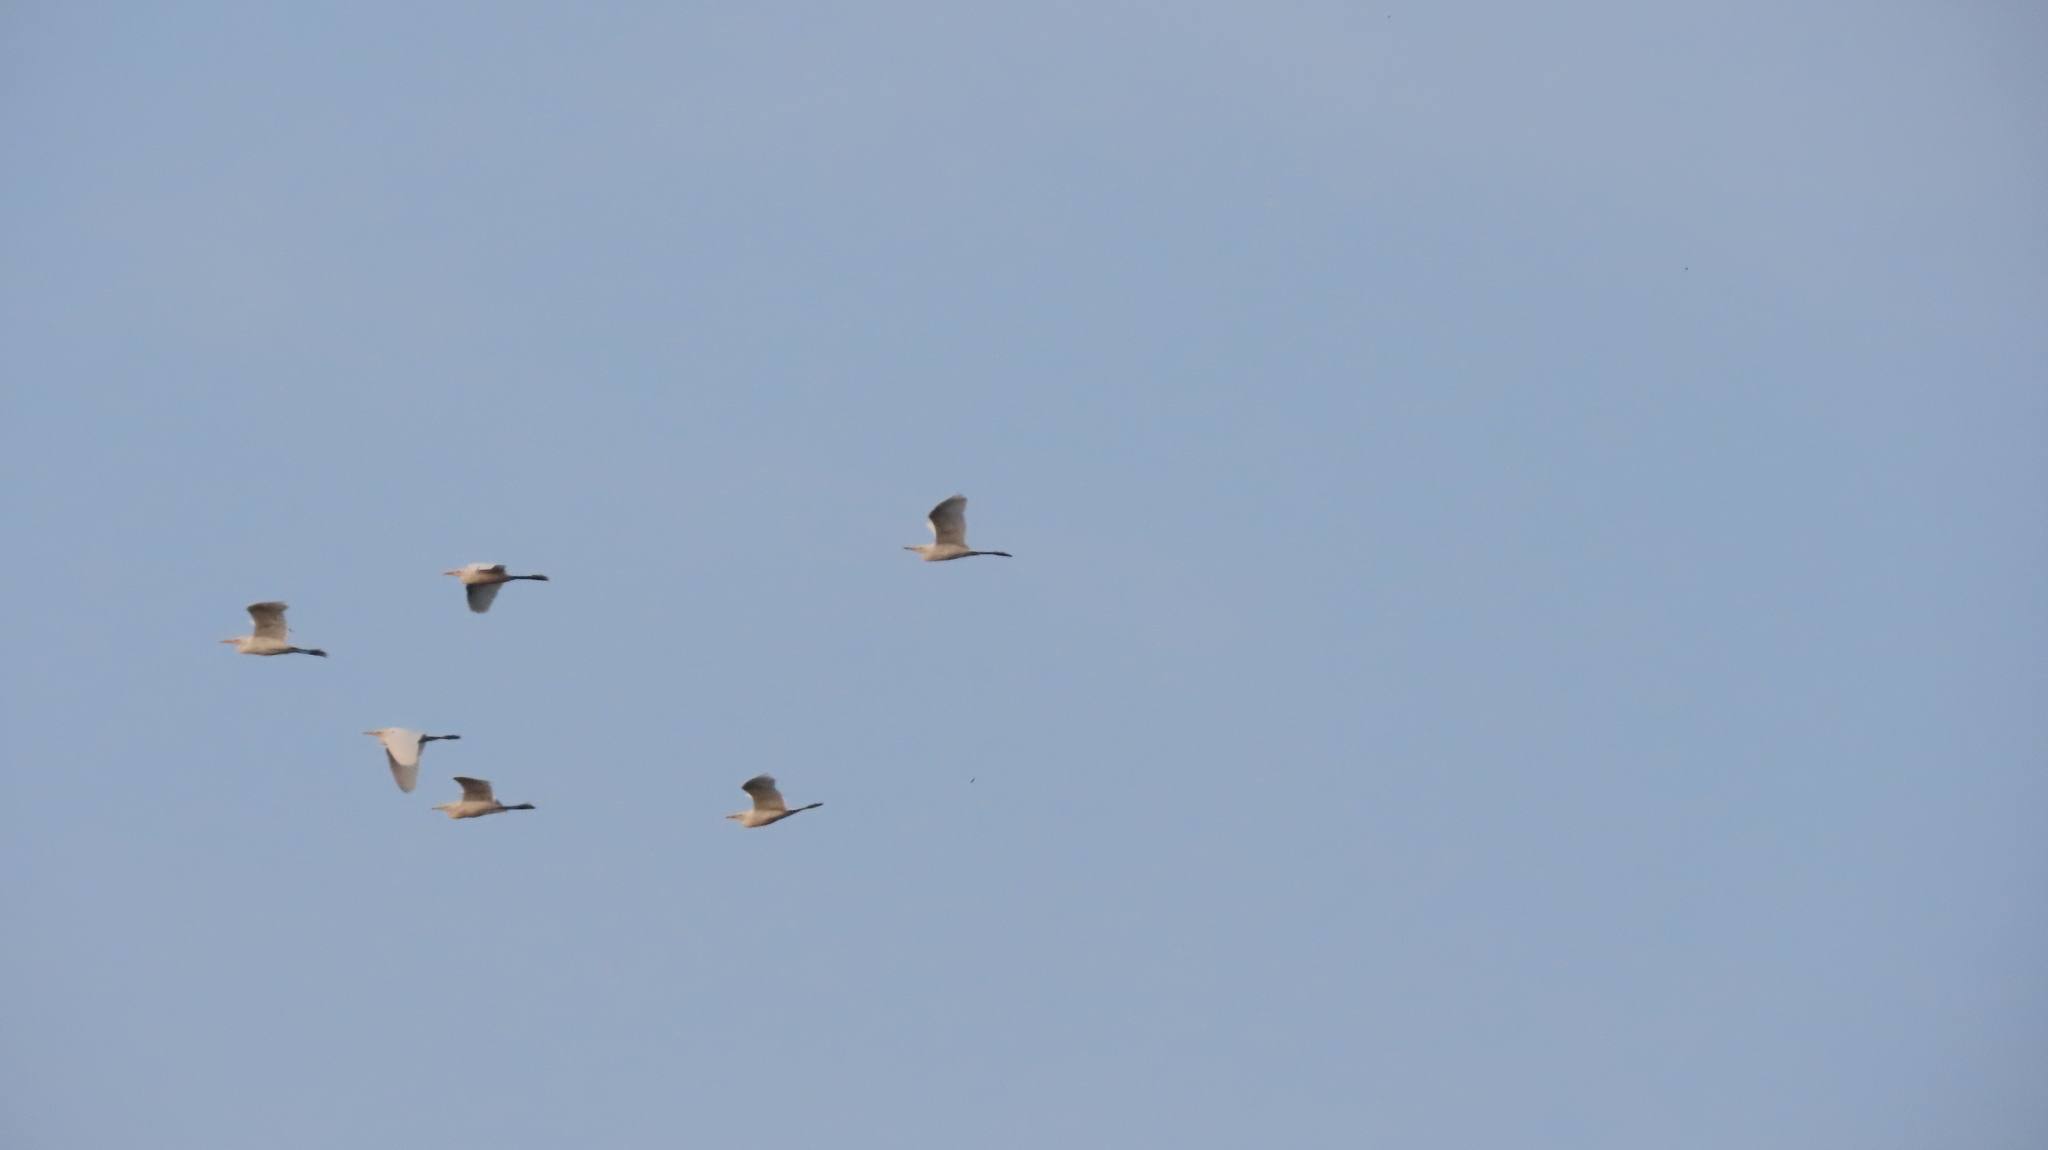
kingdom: Animalia
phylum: Chordata
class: Aves
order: Pelecaniformes
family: Ardeidae
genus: Egretta
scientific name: Egretta intermedia
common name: Intermediate egret
